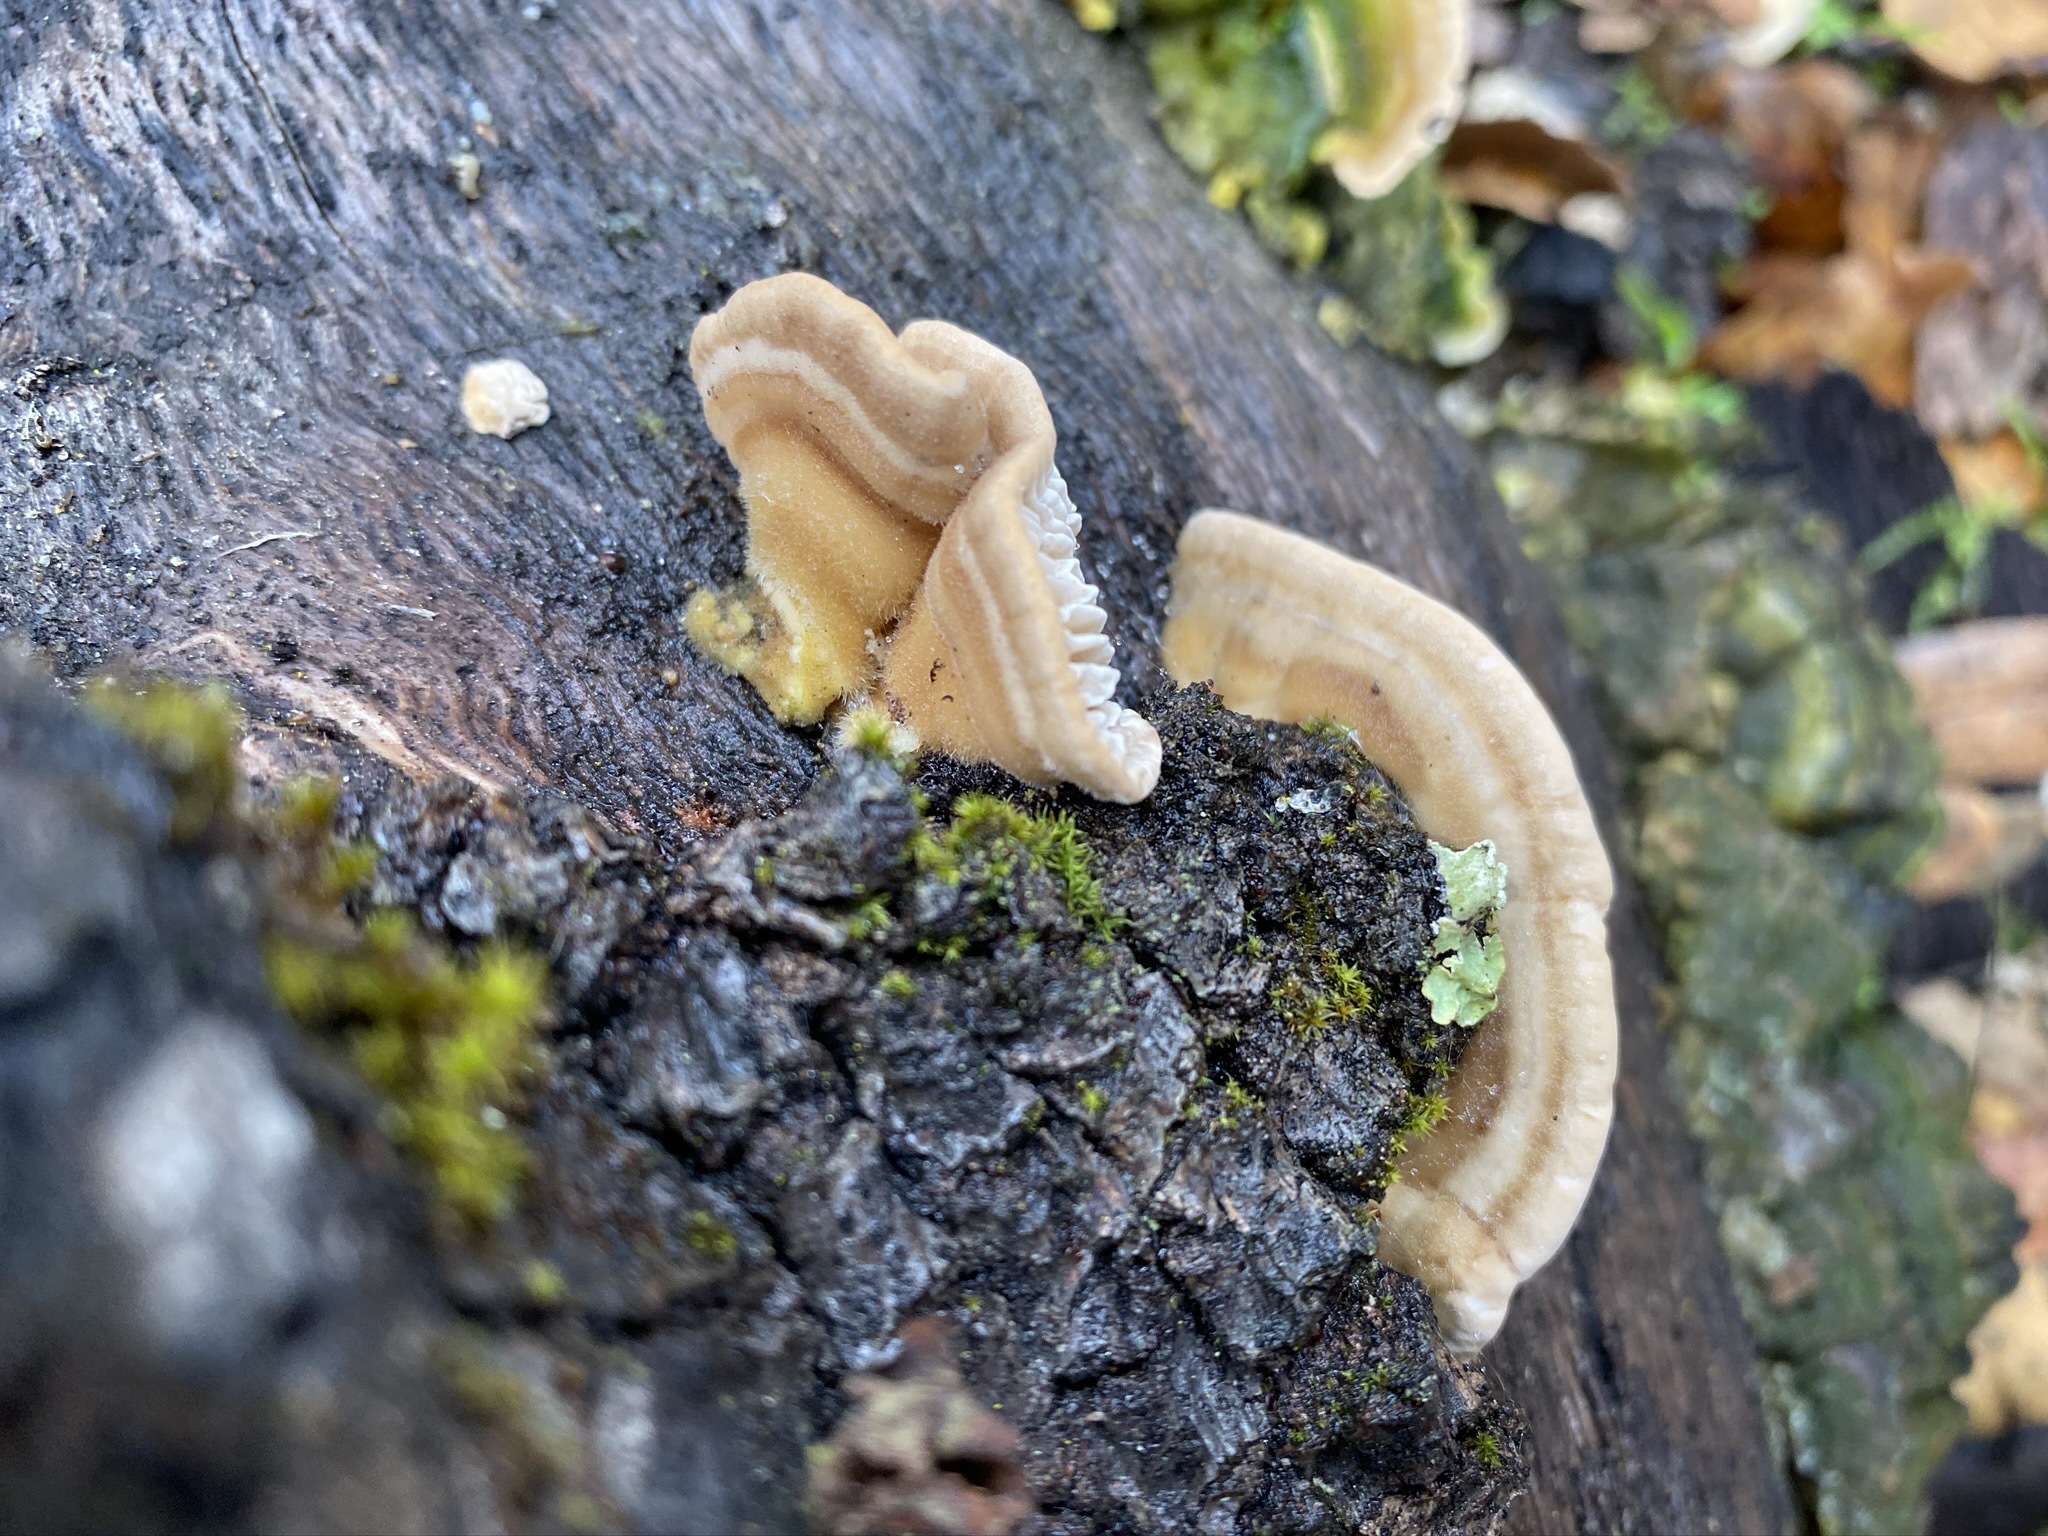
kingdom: Fungi
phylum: Basidiomycota
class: Agaricomycetes
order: Polyporales
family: Polyporaceae
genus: Lenzites
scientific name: Lenzites betulinus
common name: Birch mazegill
